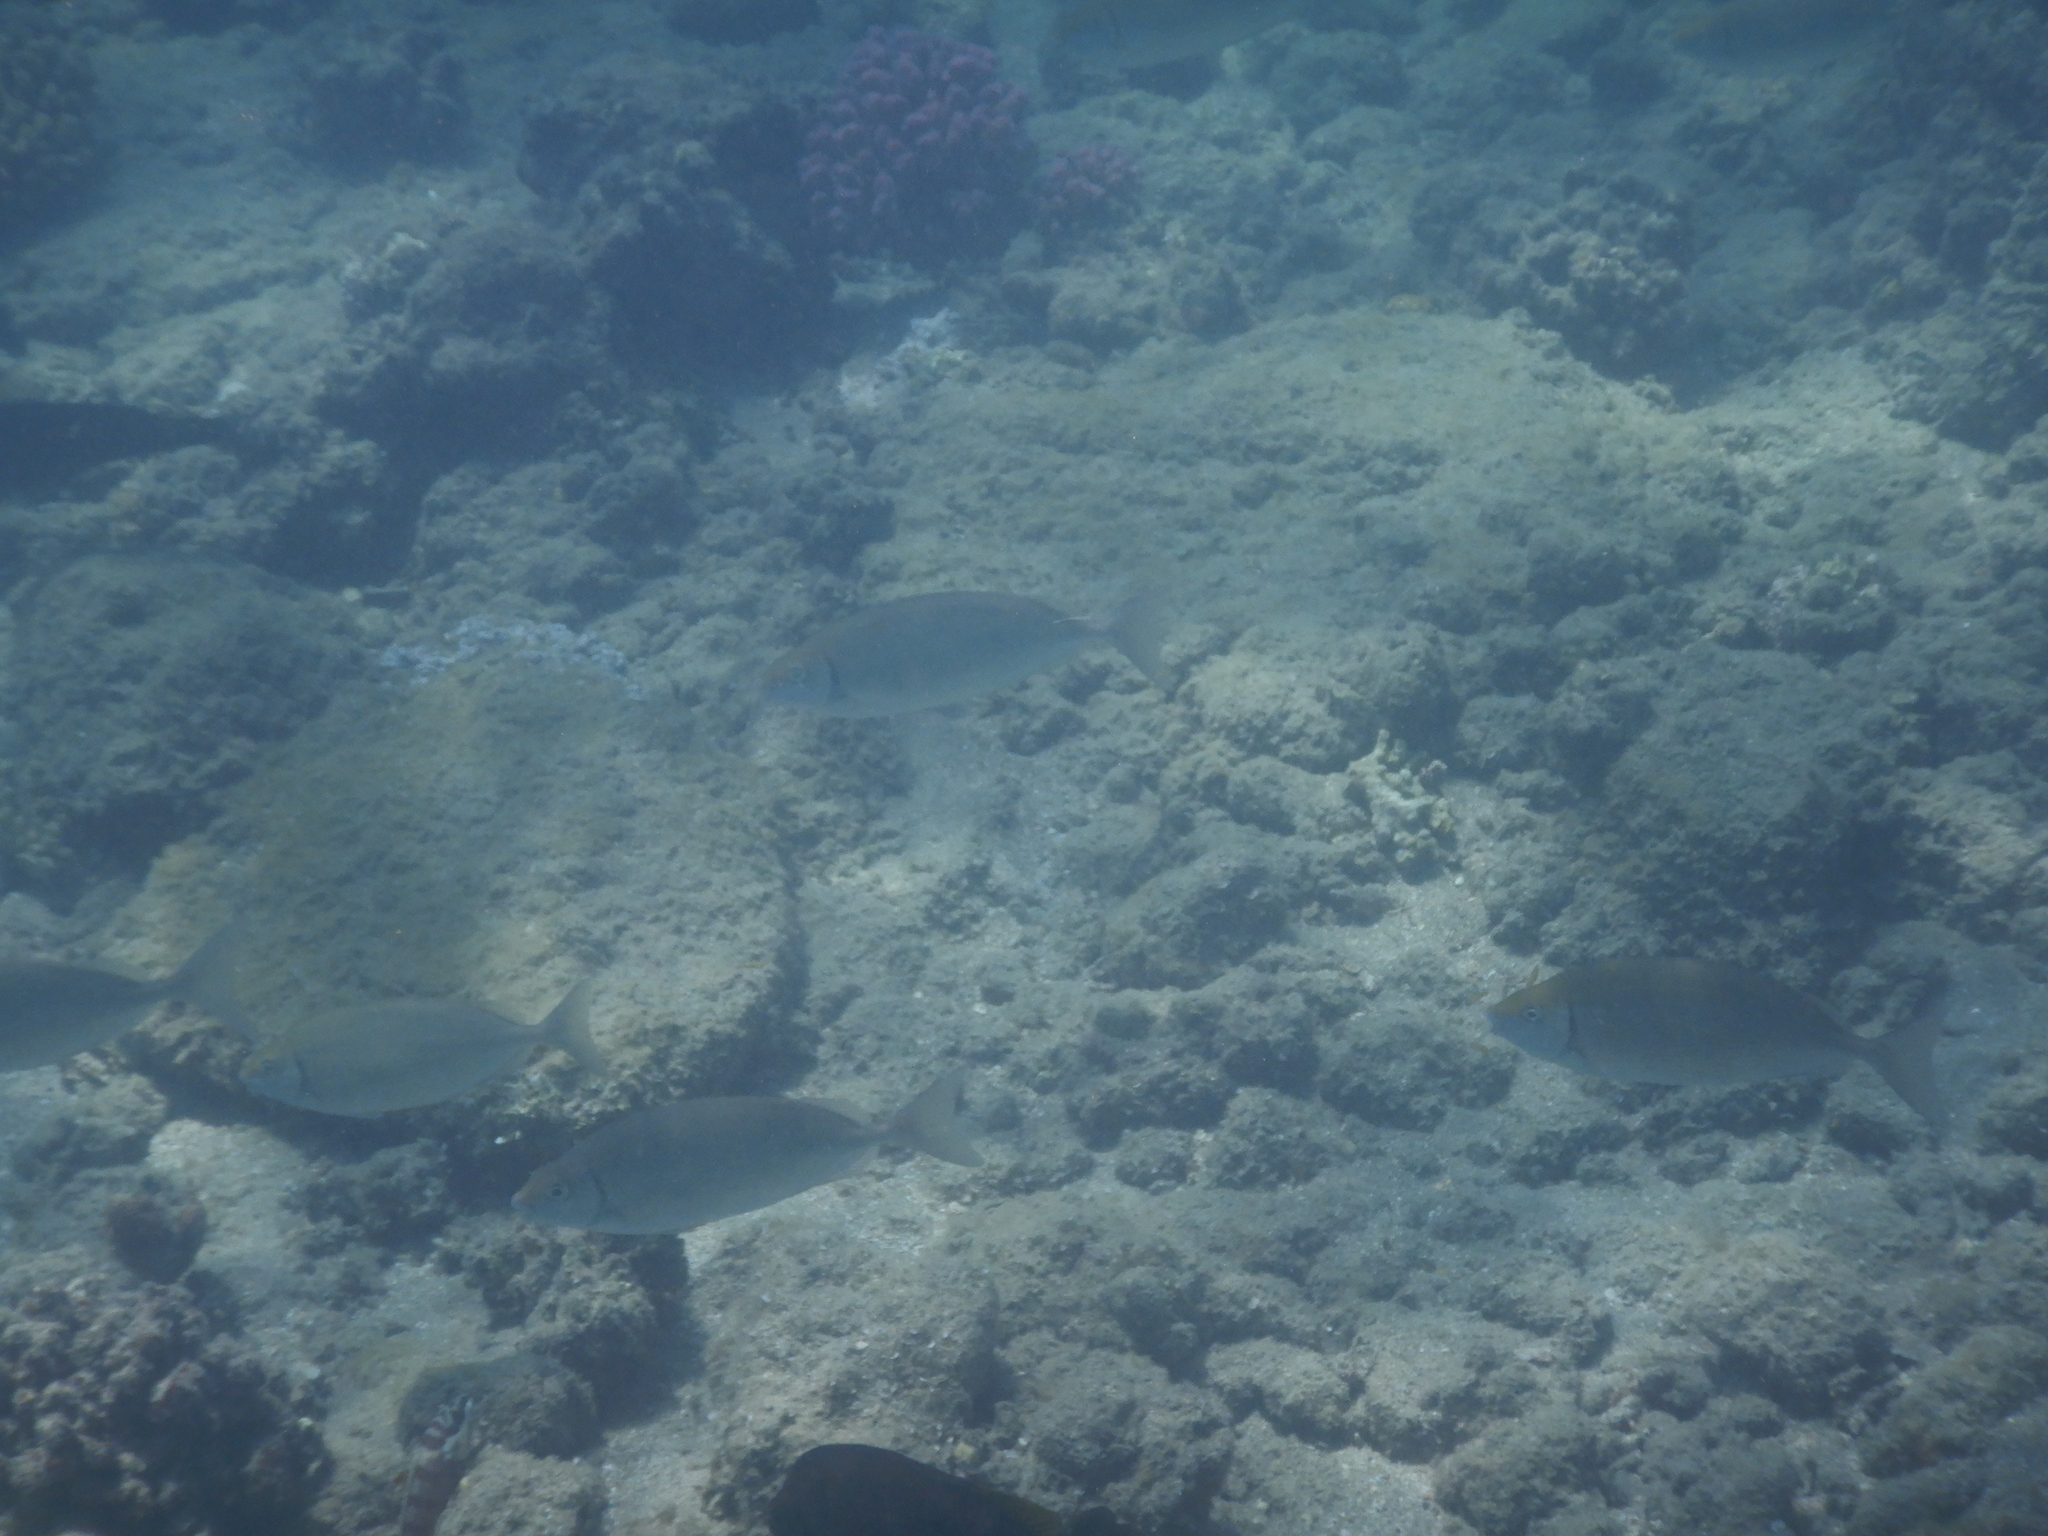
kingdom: Animalia
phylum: Chordata
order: Perciformes
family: Siganidae
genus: Siganus
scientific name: Siganus rivulatus
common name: Marbled spinefoot
